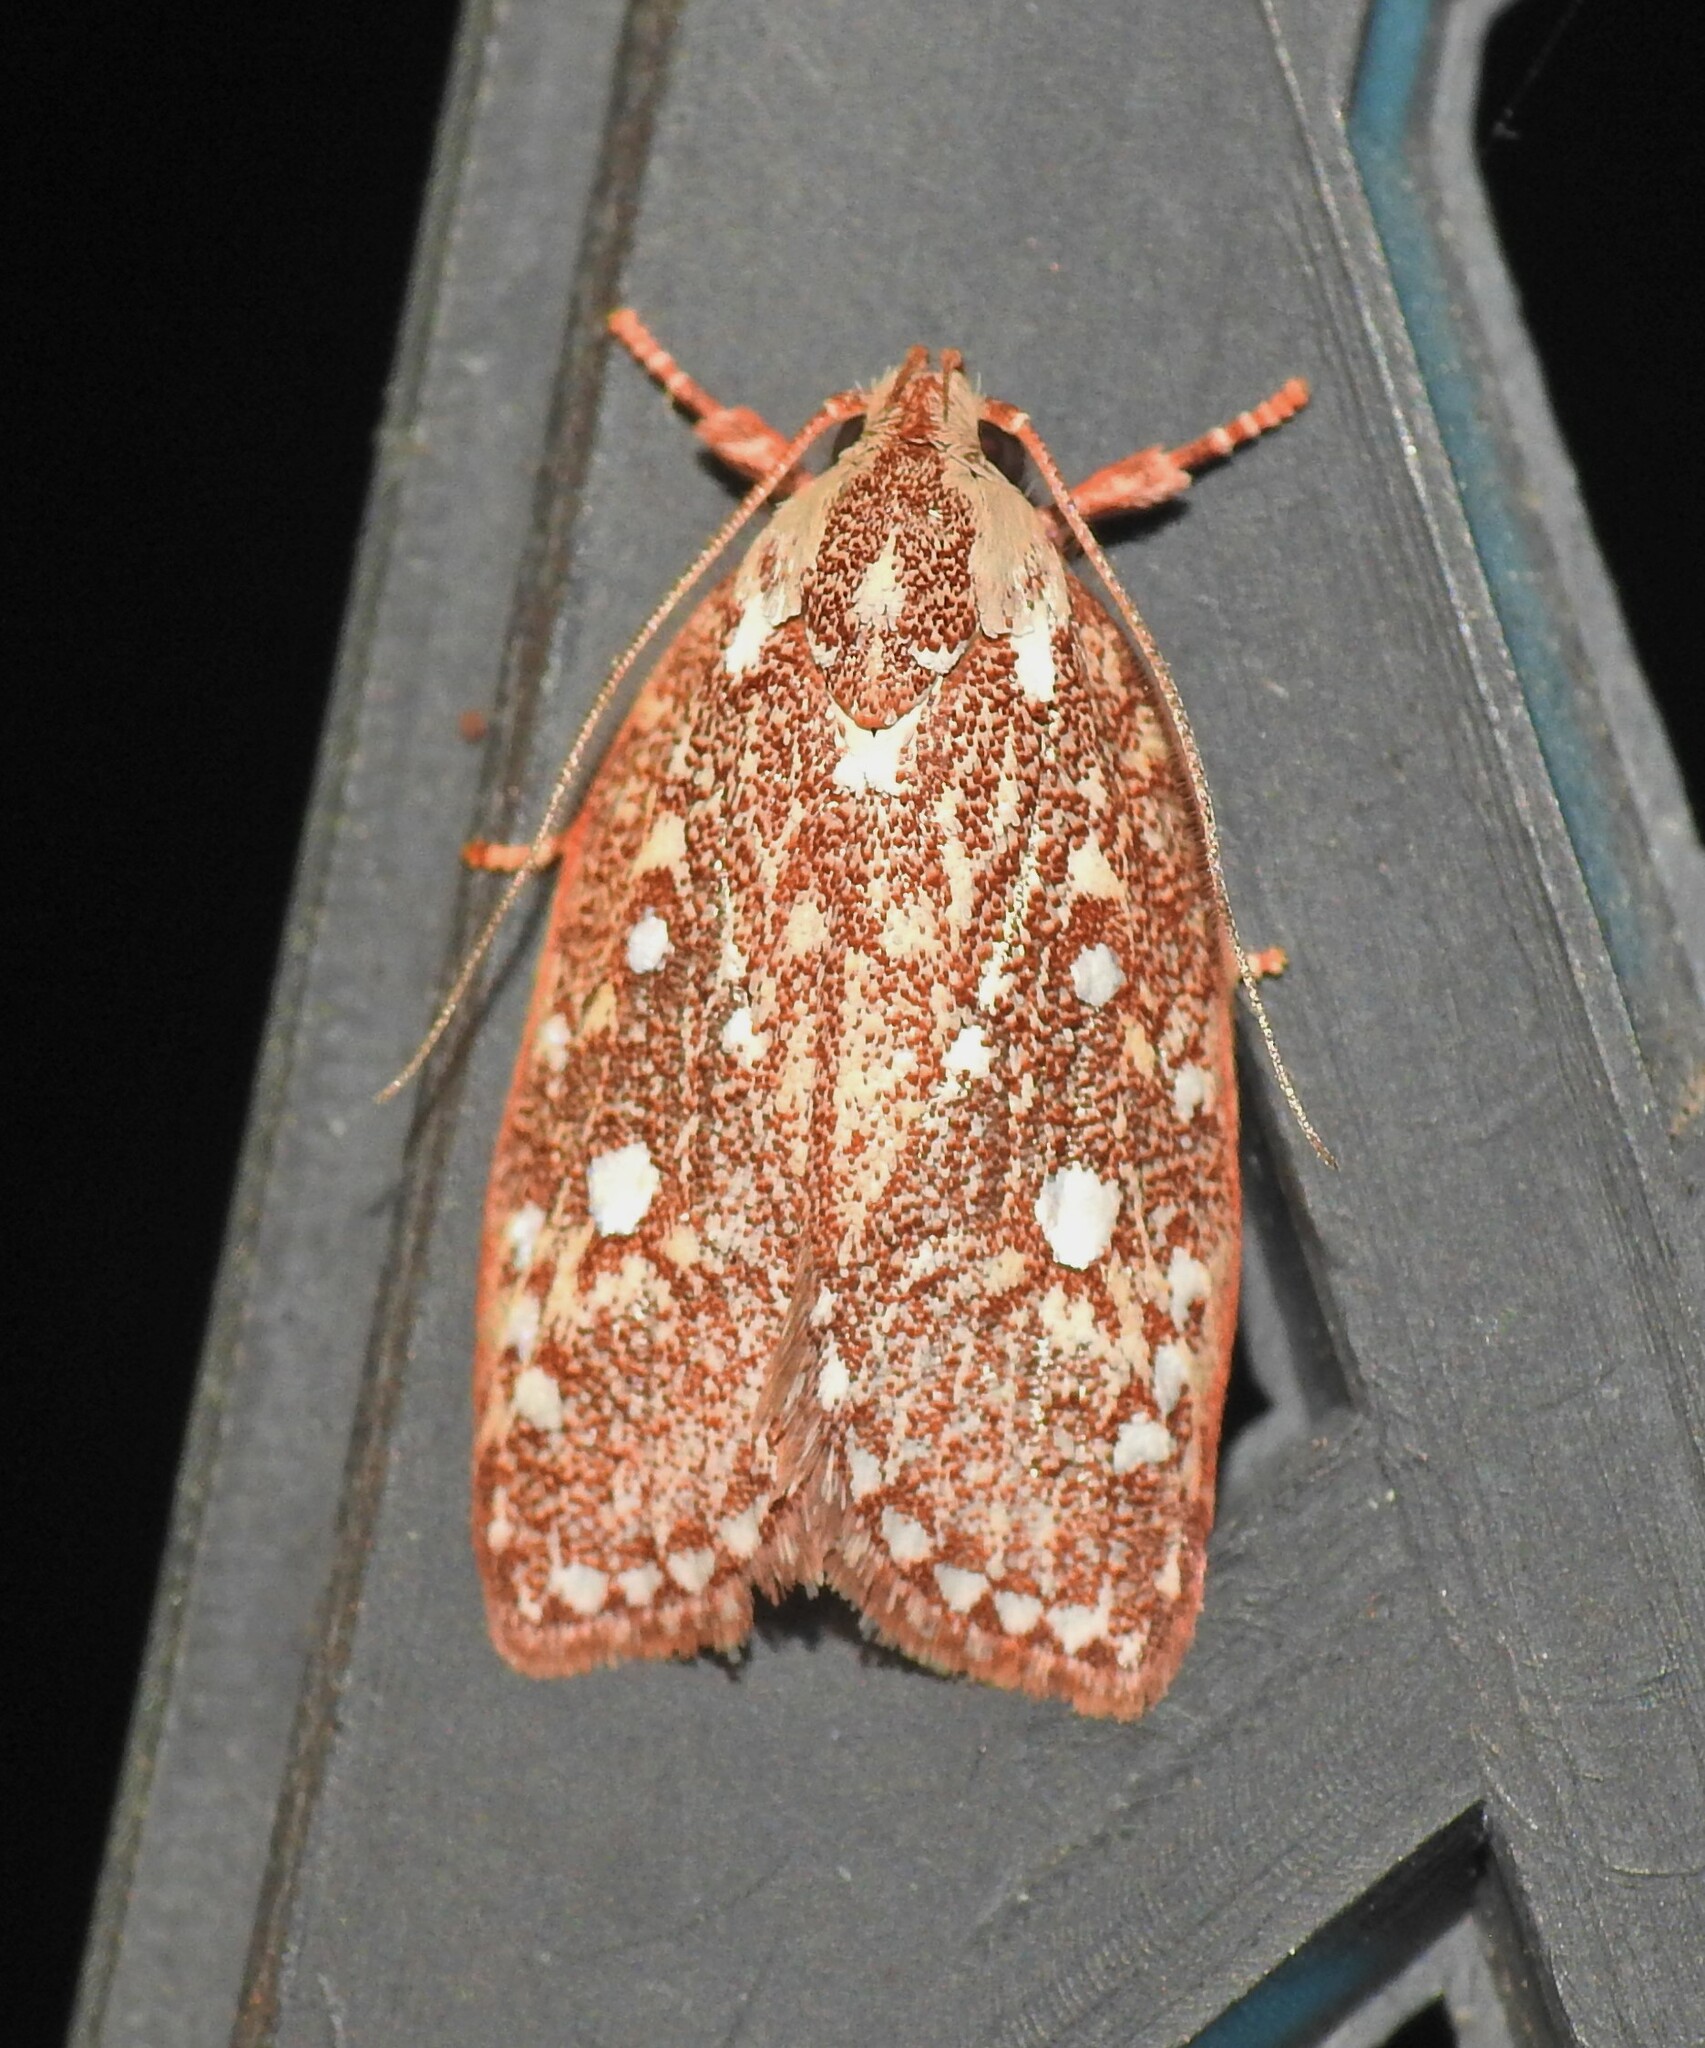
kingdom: Animalia
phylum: Arthropoda
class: Insecta
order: Lepidoptera
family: Oecophoridae
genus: Euchaetis
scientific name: Euchaetis metallota
